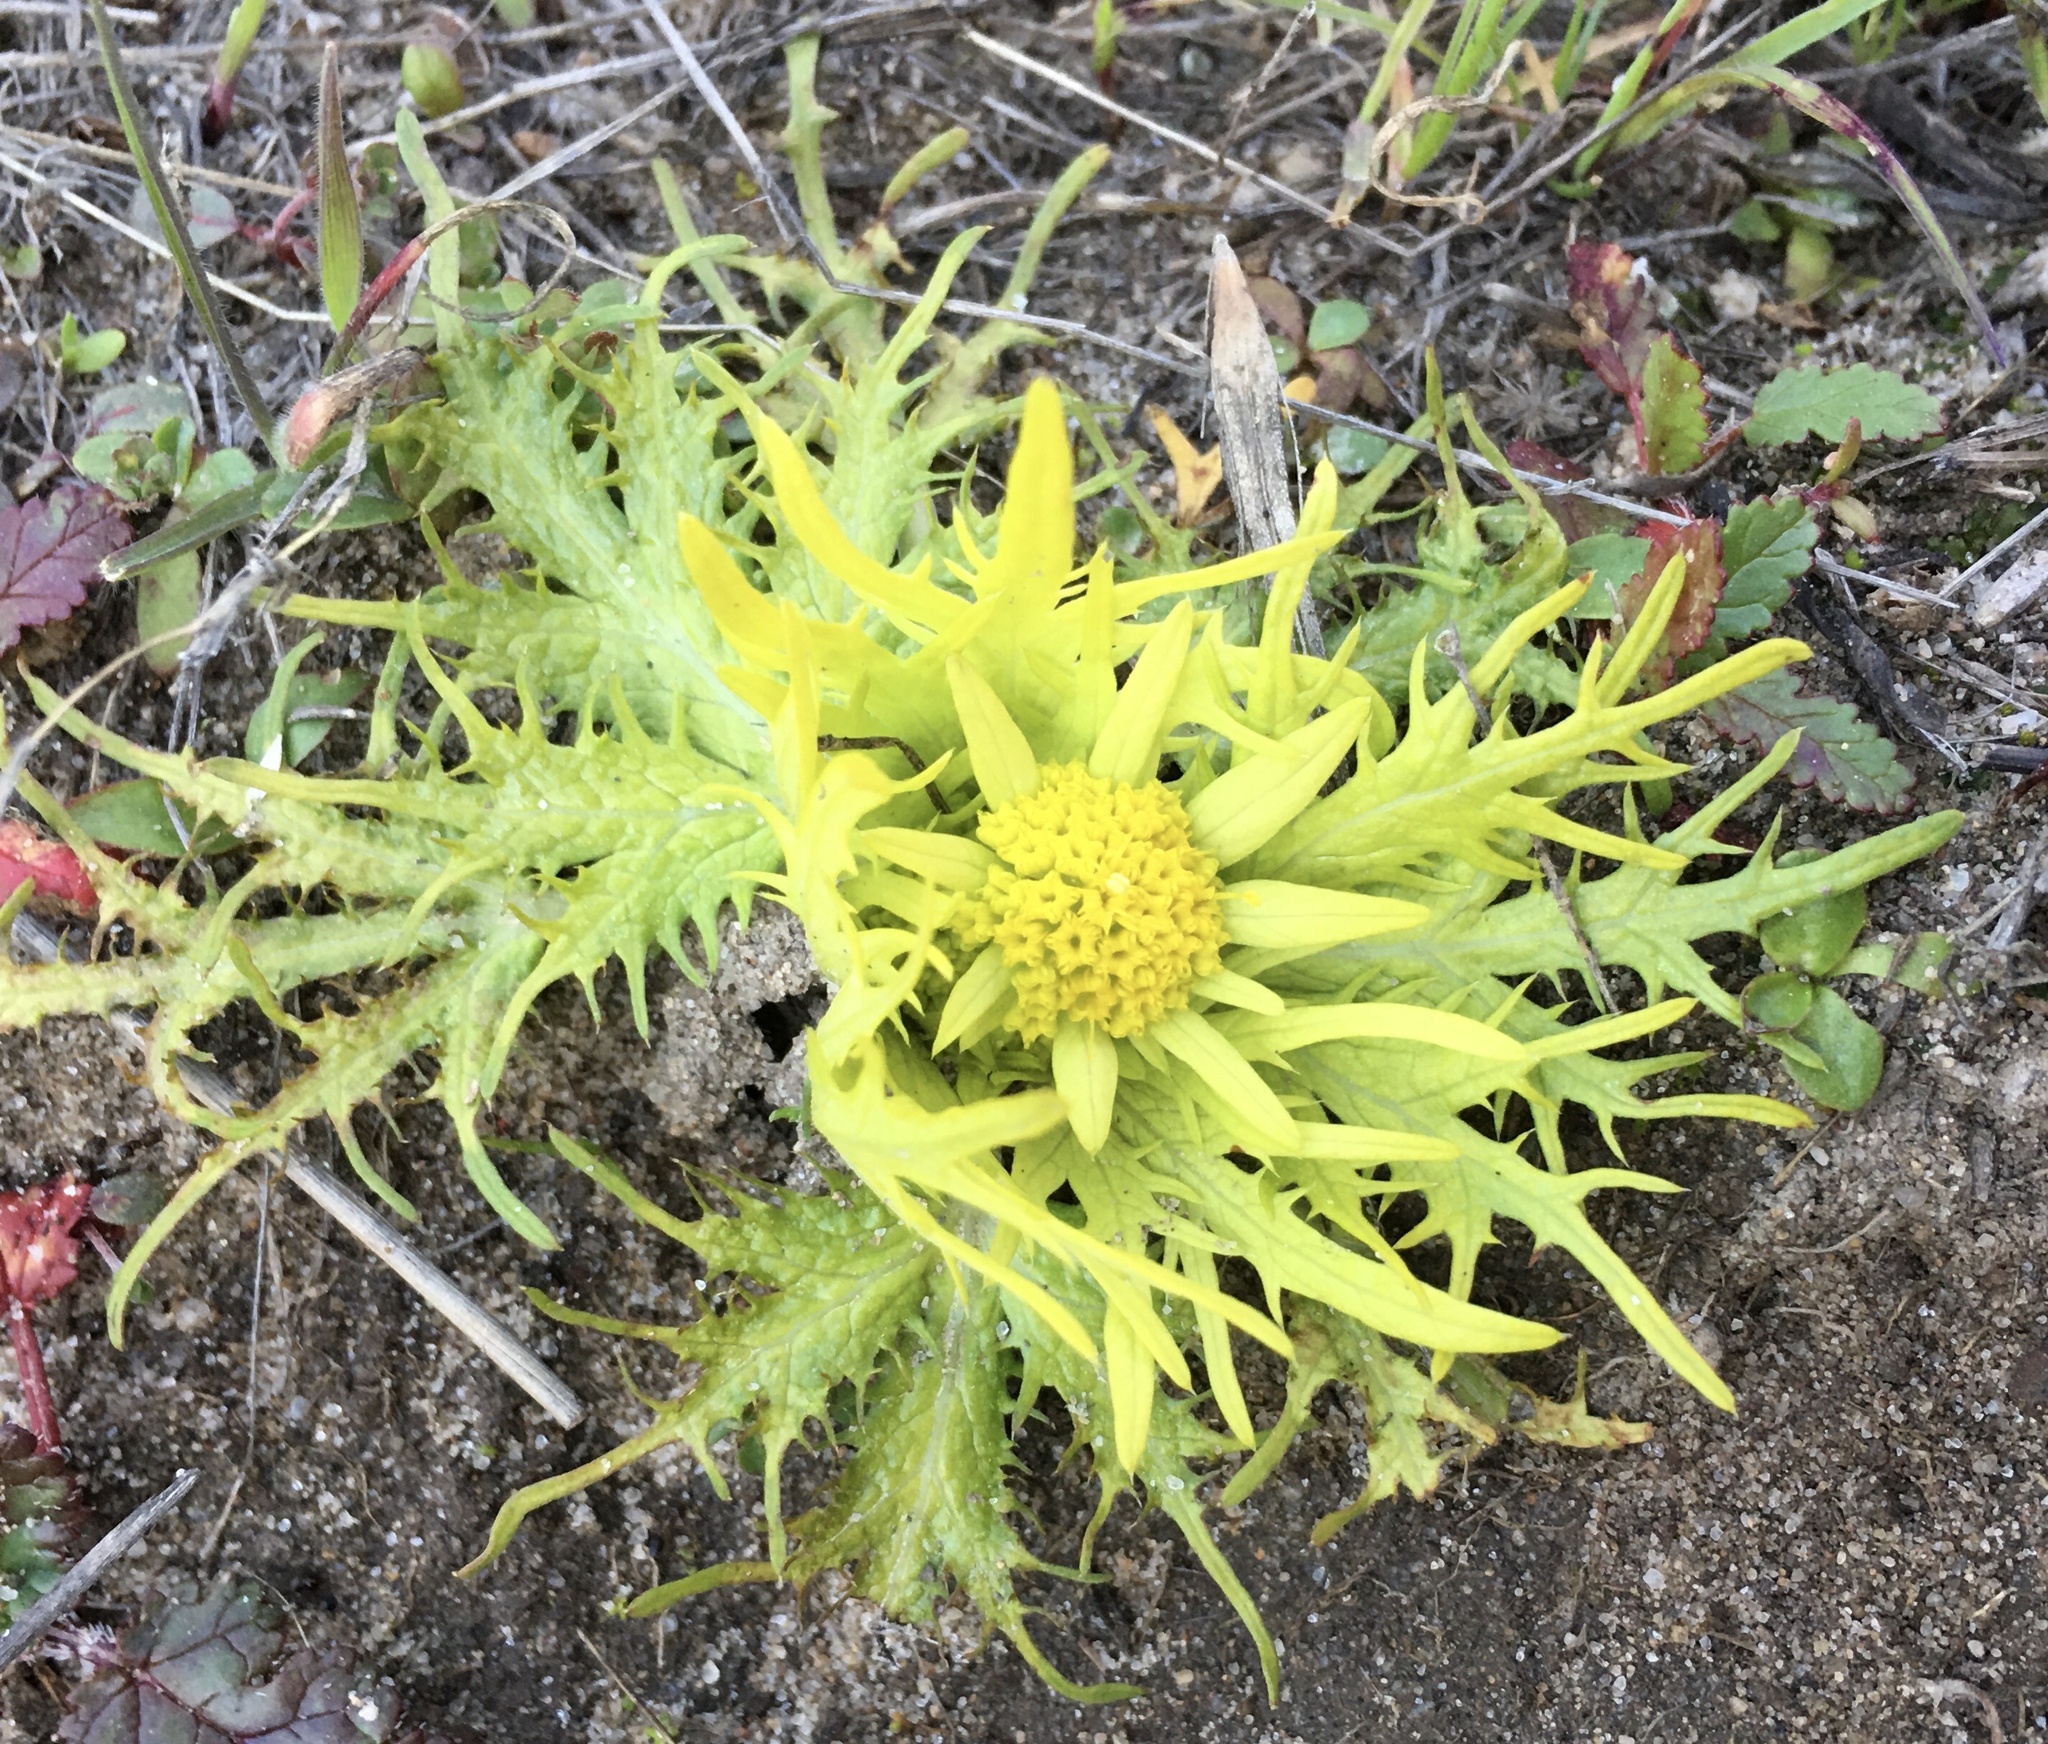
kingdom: Plantae
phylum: Tracheophyta
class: Magnoliopsida
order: Apiales
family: Apiaceae
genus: Sanicula
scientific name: Sanicula arctopoides
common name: Footsteps-of-spring
